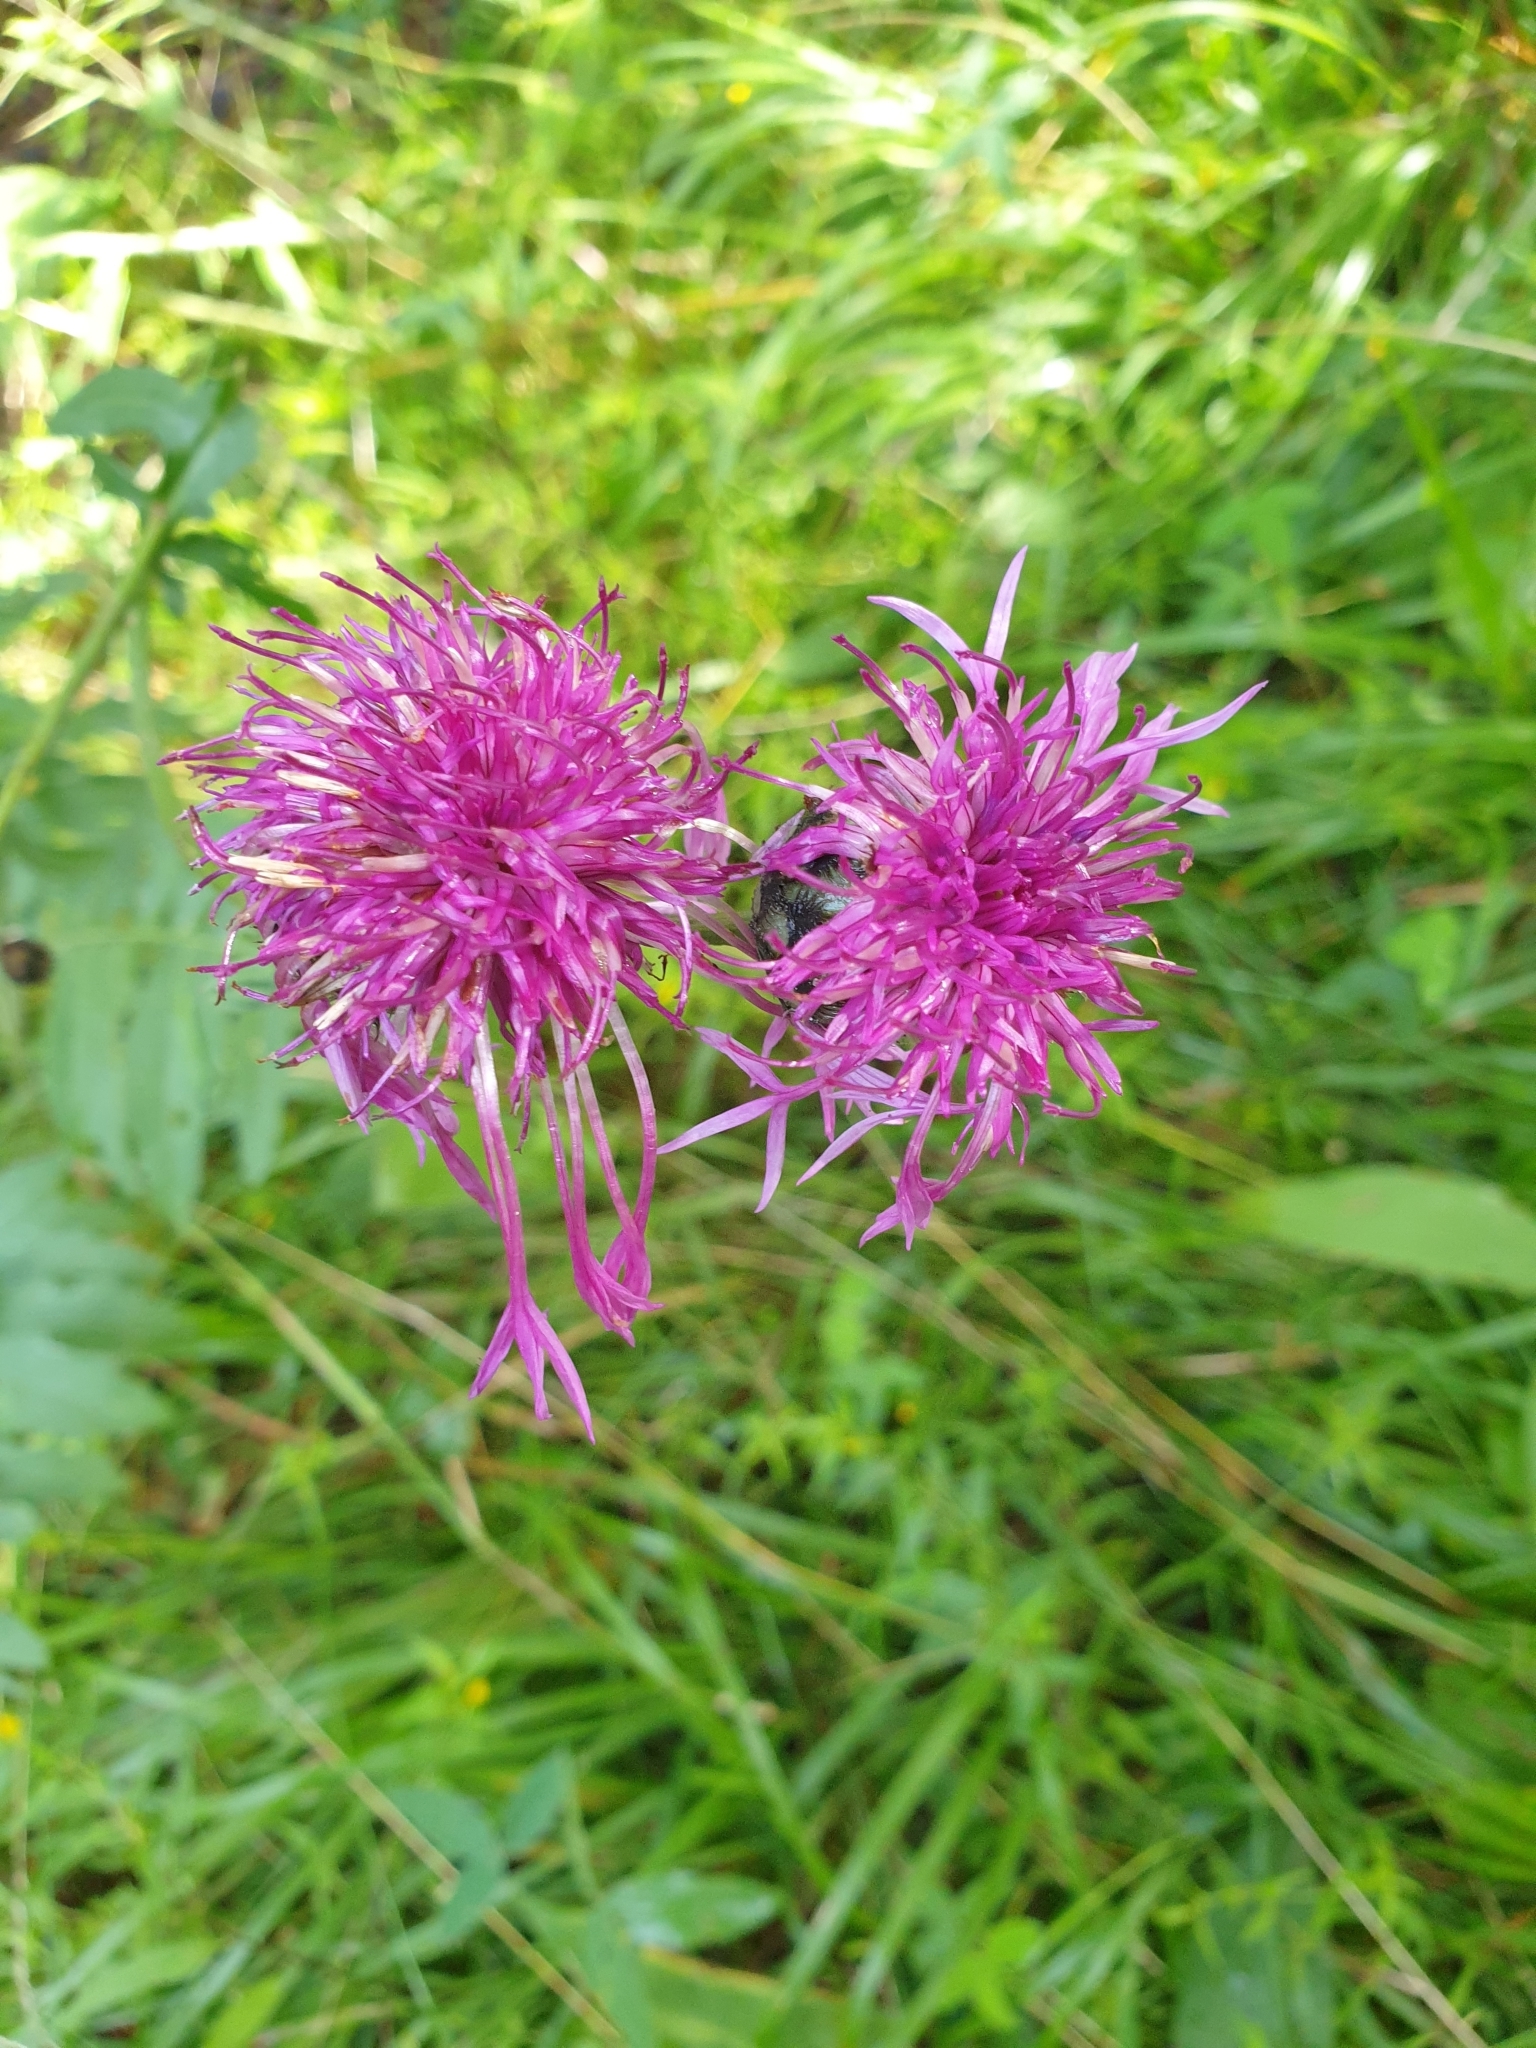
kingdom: Plantae
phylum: Tracheophyta
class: Magnoliopsida
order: Asterales
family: Asteraceae
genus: Centaurea
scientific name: Centaurea scabiosa
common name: Greater knapweed
